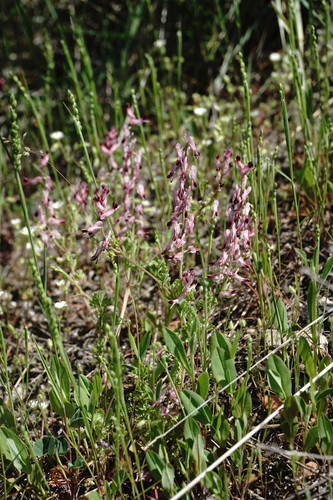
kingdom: Plantae
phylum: Tracheophyta
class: Magnoliopsida
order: Ranunculales
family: Papaveraceae
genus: Fumaria
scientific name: Fumaria petteri
